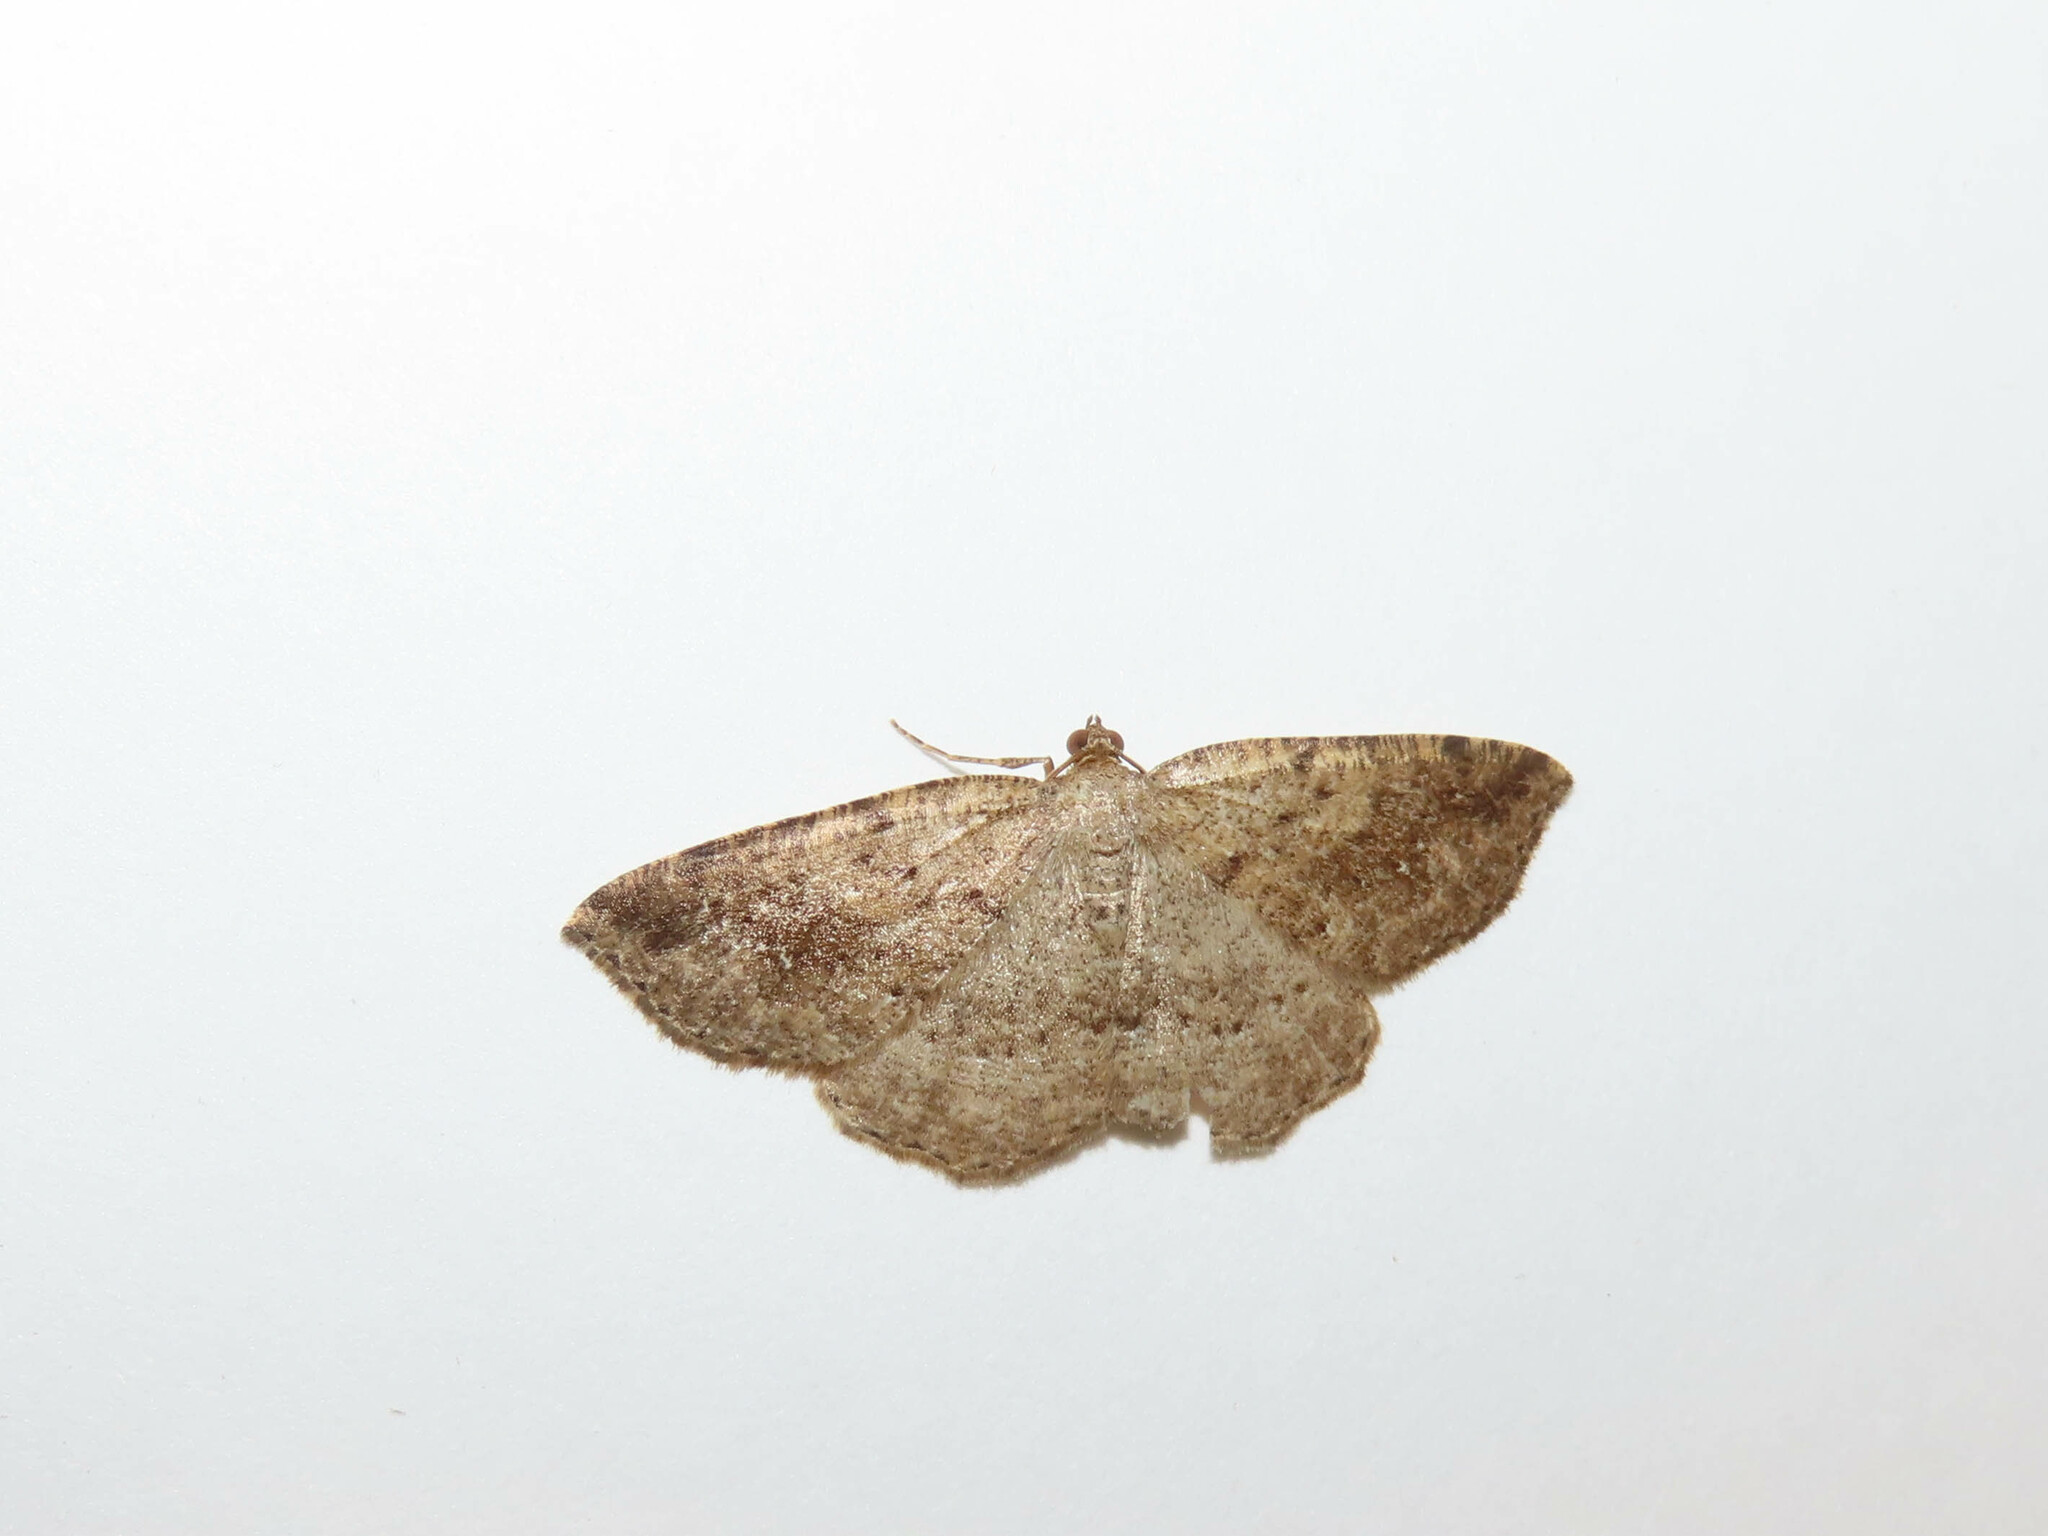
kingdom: Animalia
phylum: Arthropoda
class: Insecta
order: Lepidoptera
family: Geometridae
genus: Homochlodes
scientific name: Homochlodes fritillaria
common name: Pale homochlodes
